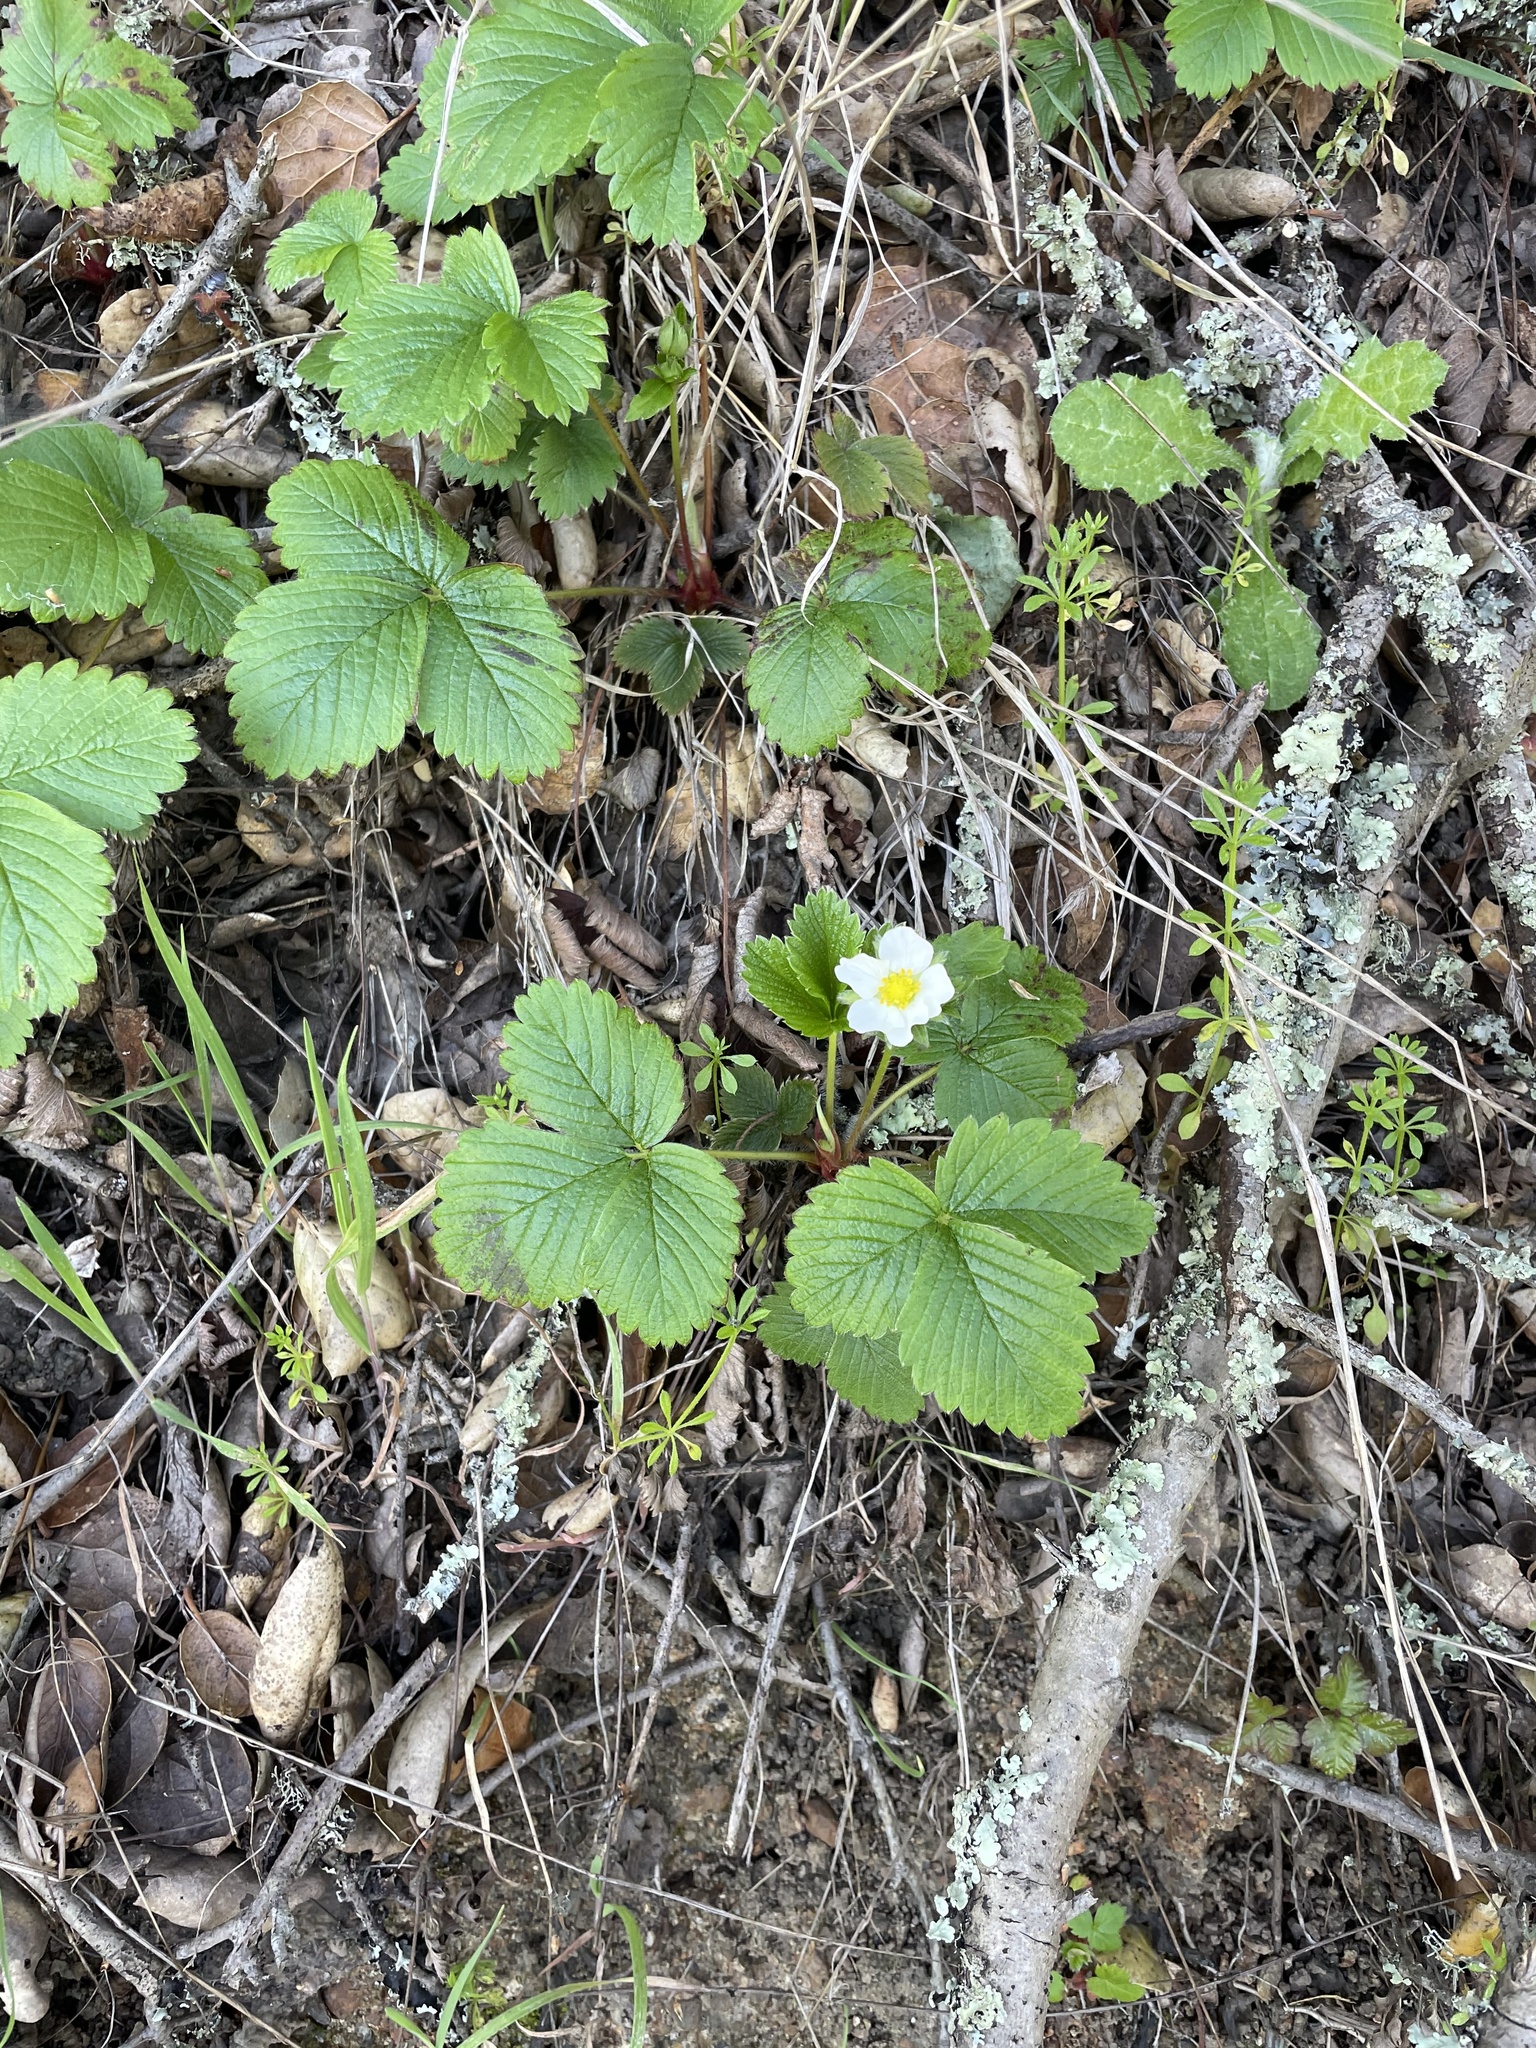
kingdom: Plantae
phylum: Tracheophyta
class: Magnoliopsida
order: Rosales
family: Rosaceae
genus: Fragaria
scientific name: Fragaria vesca
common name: Wild strawberry
